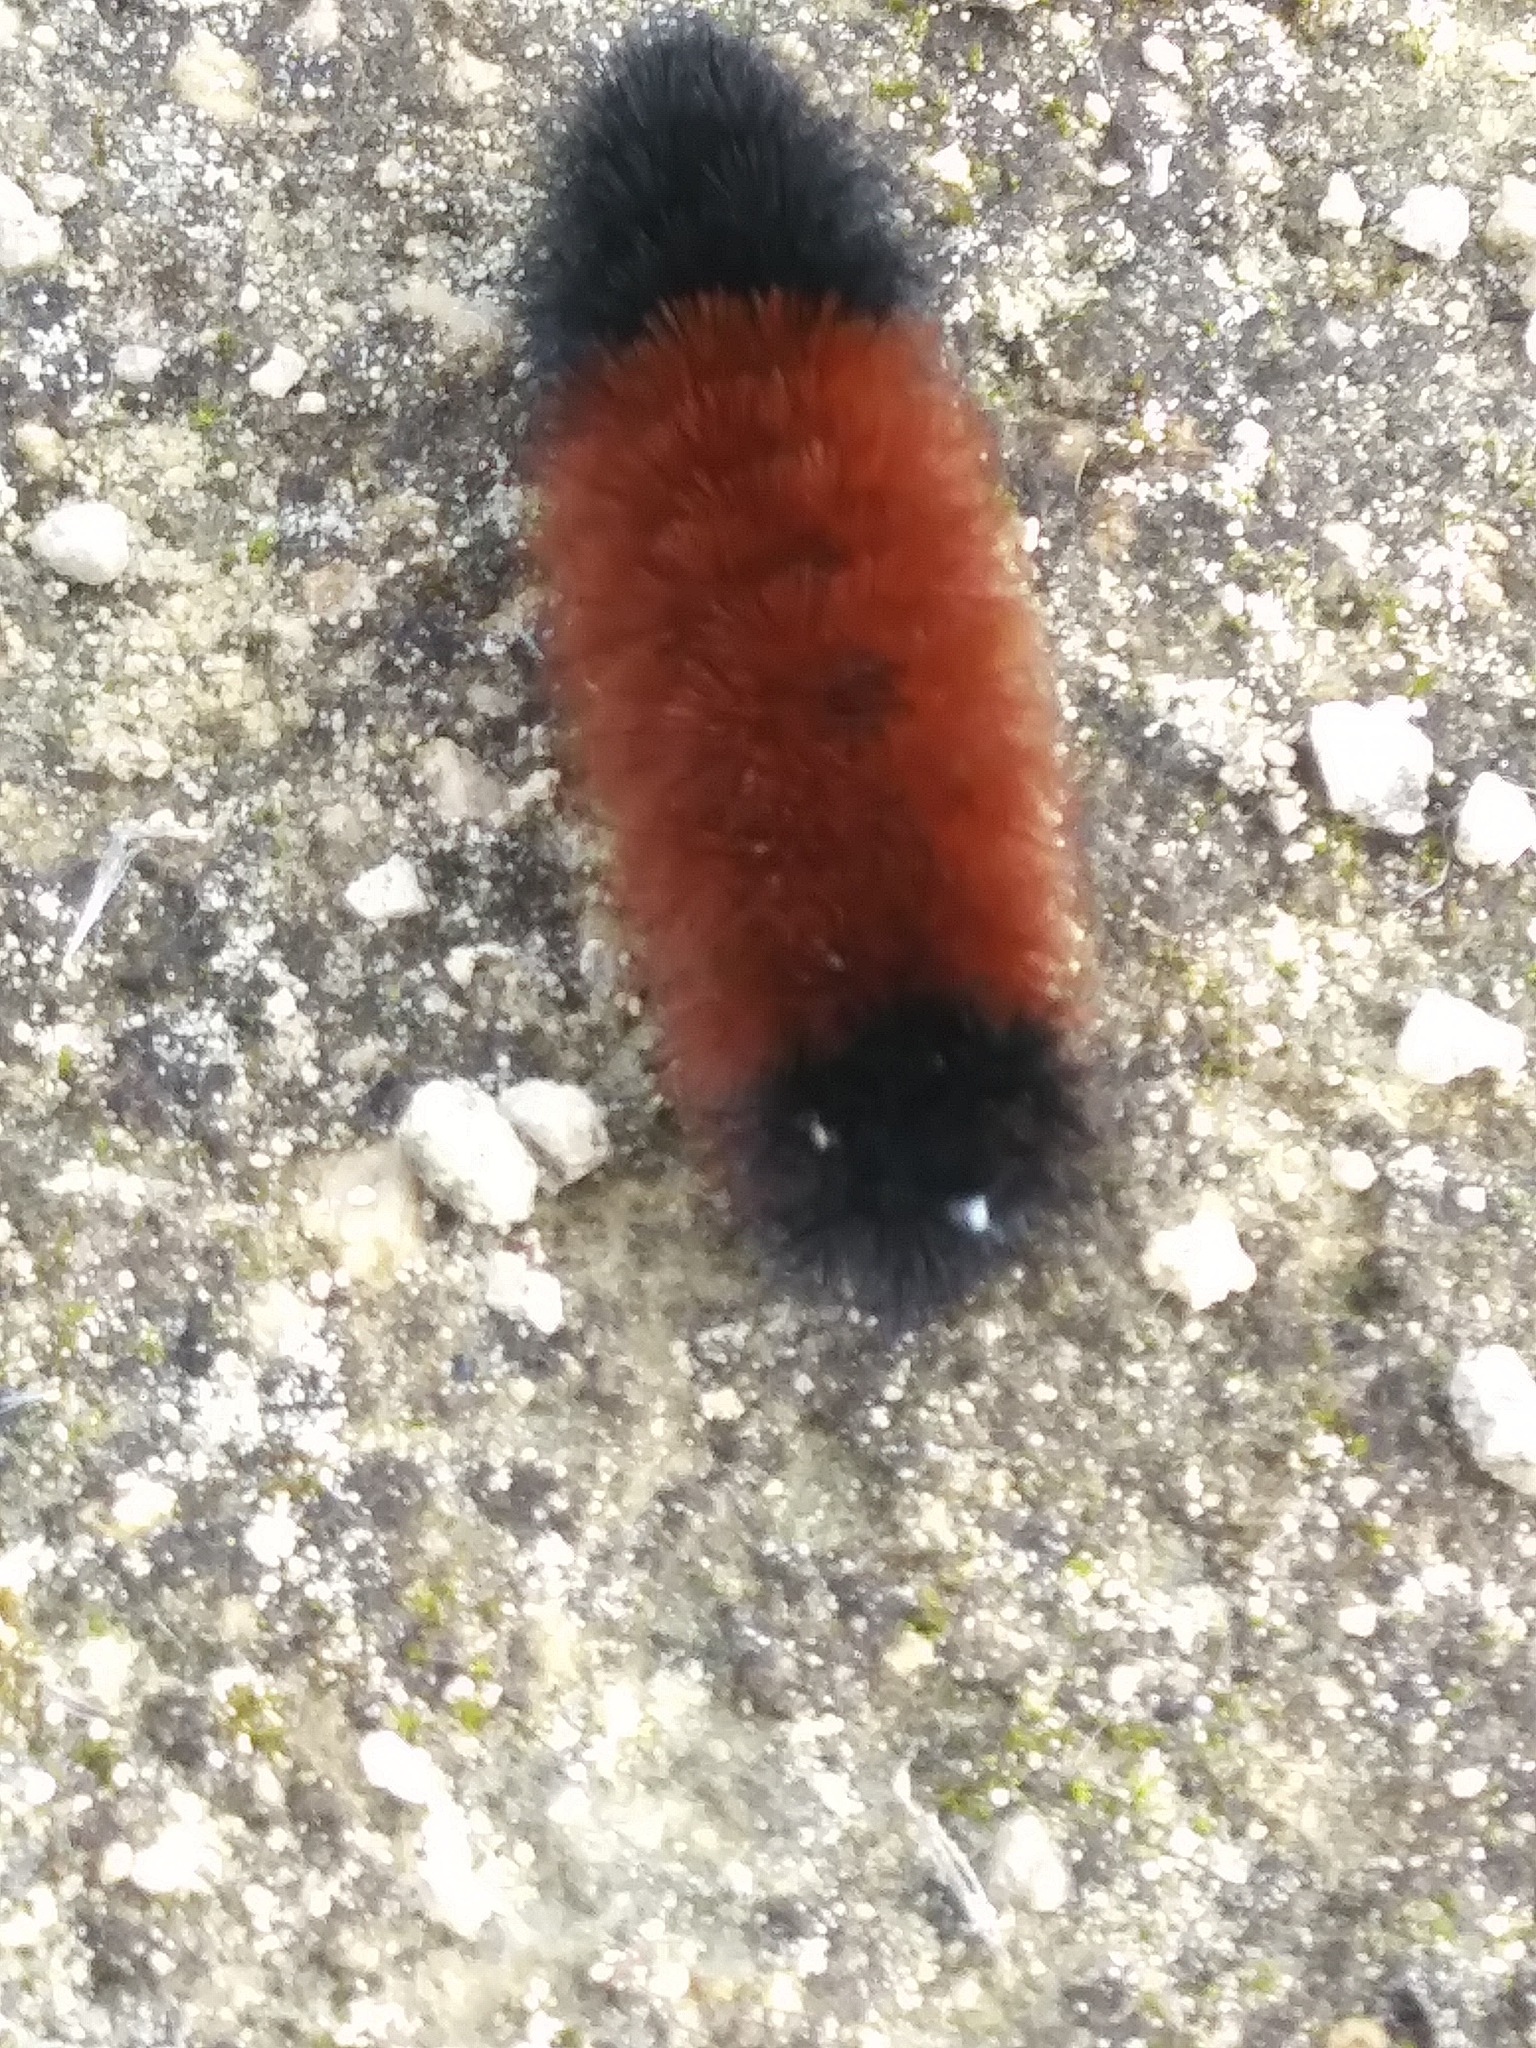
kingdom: Animalia
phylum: Arthropoda
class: Insecta
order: Lepidoptera
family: Erebidae
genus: Pyrrharctia
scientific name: Pyrrharctia isabella
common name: Isabella tiger moth
